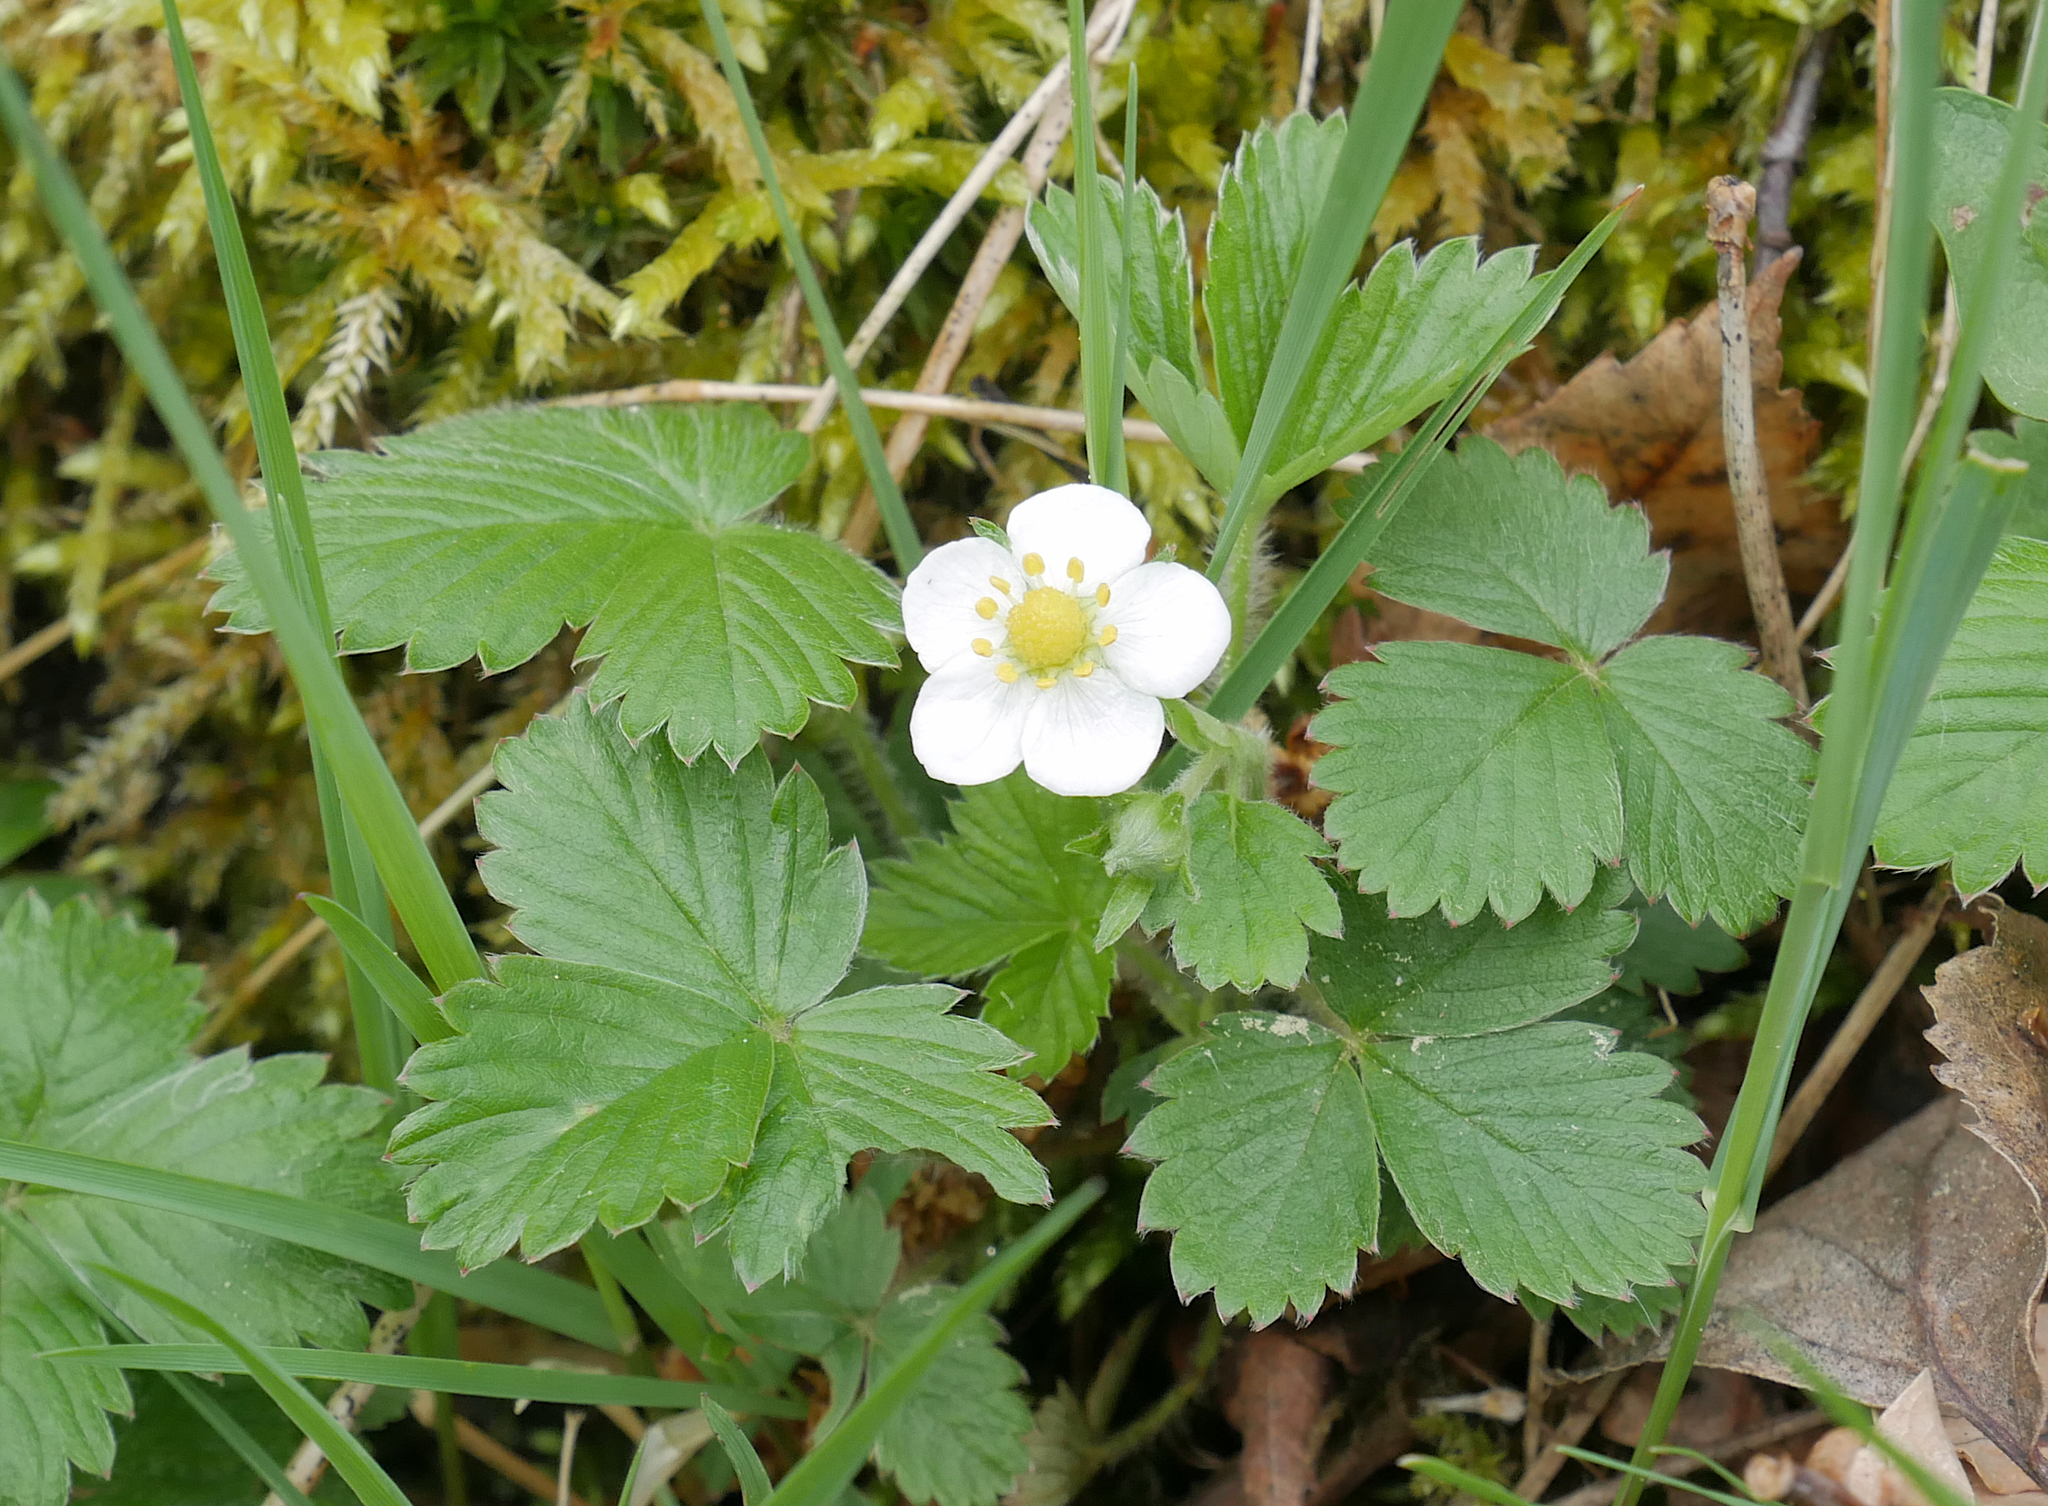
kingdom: Plantae
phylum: Tracheophyta
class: Magnoliopsida
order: Rosales
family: Rosaceae
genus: Fragaria
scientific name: Fragaria vesca
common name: Wild strawberry
